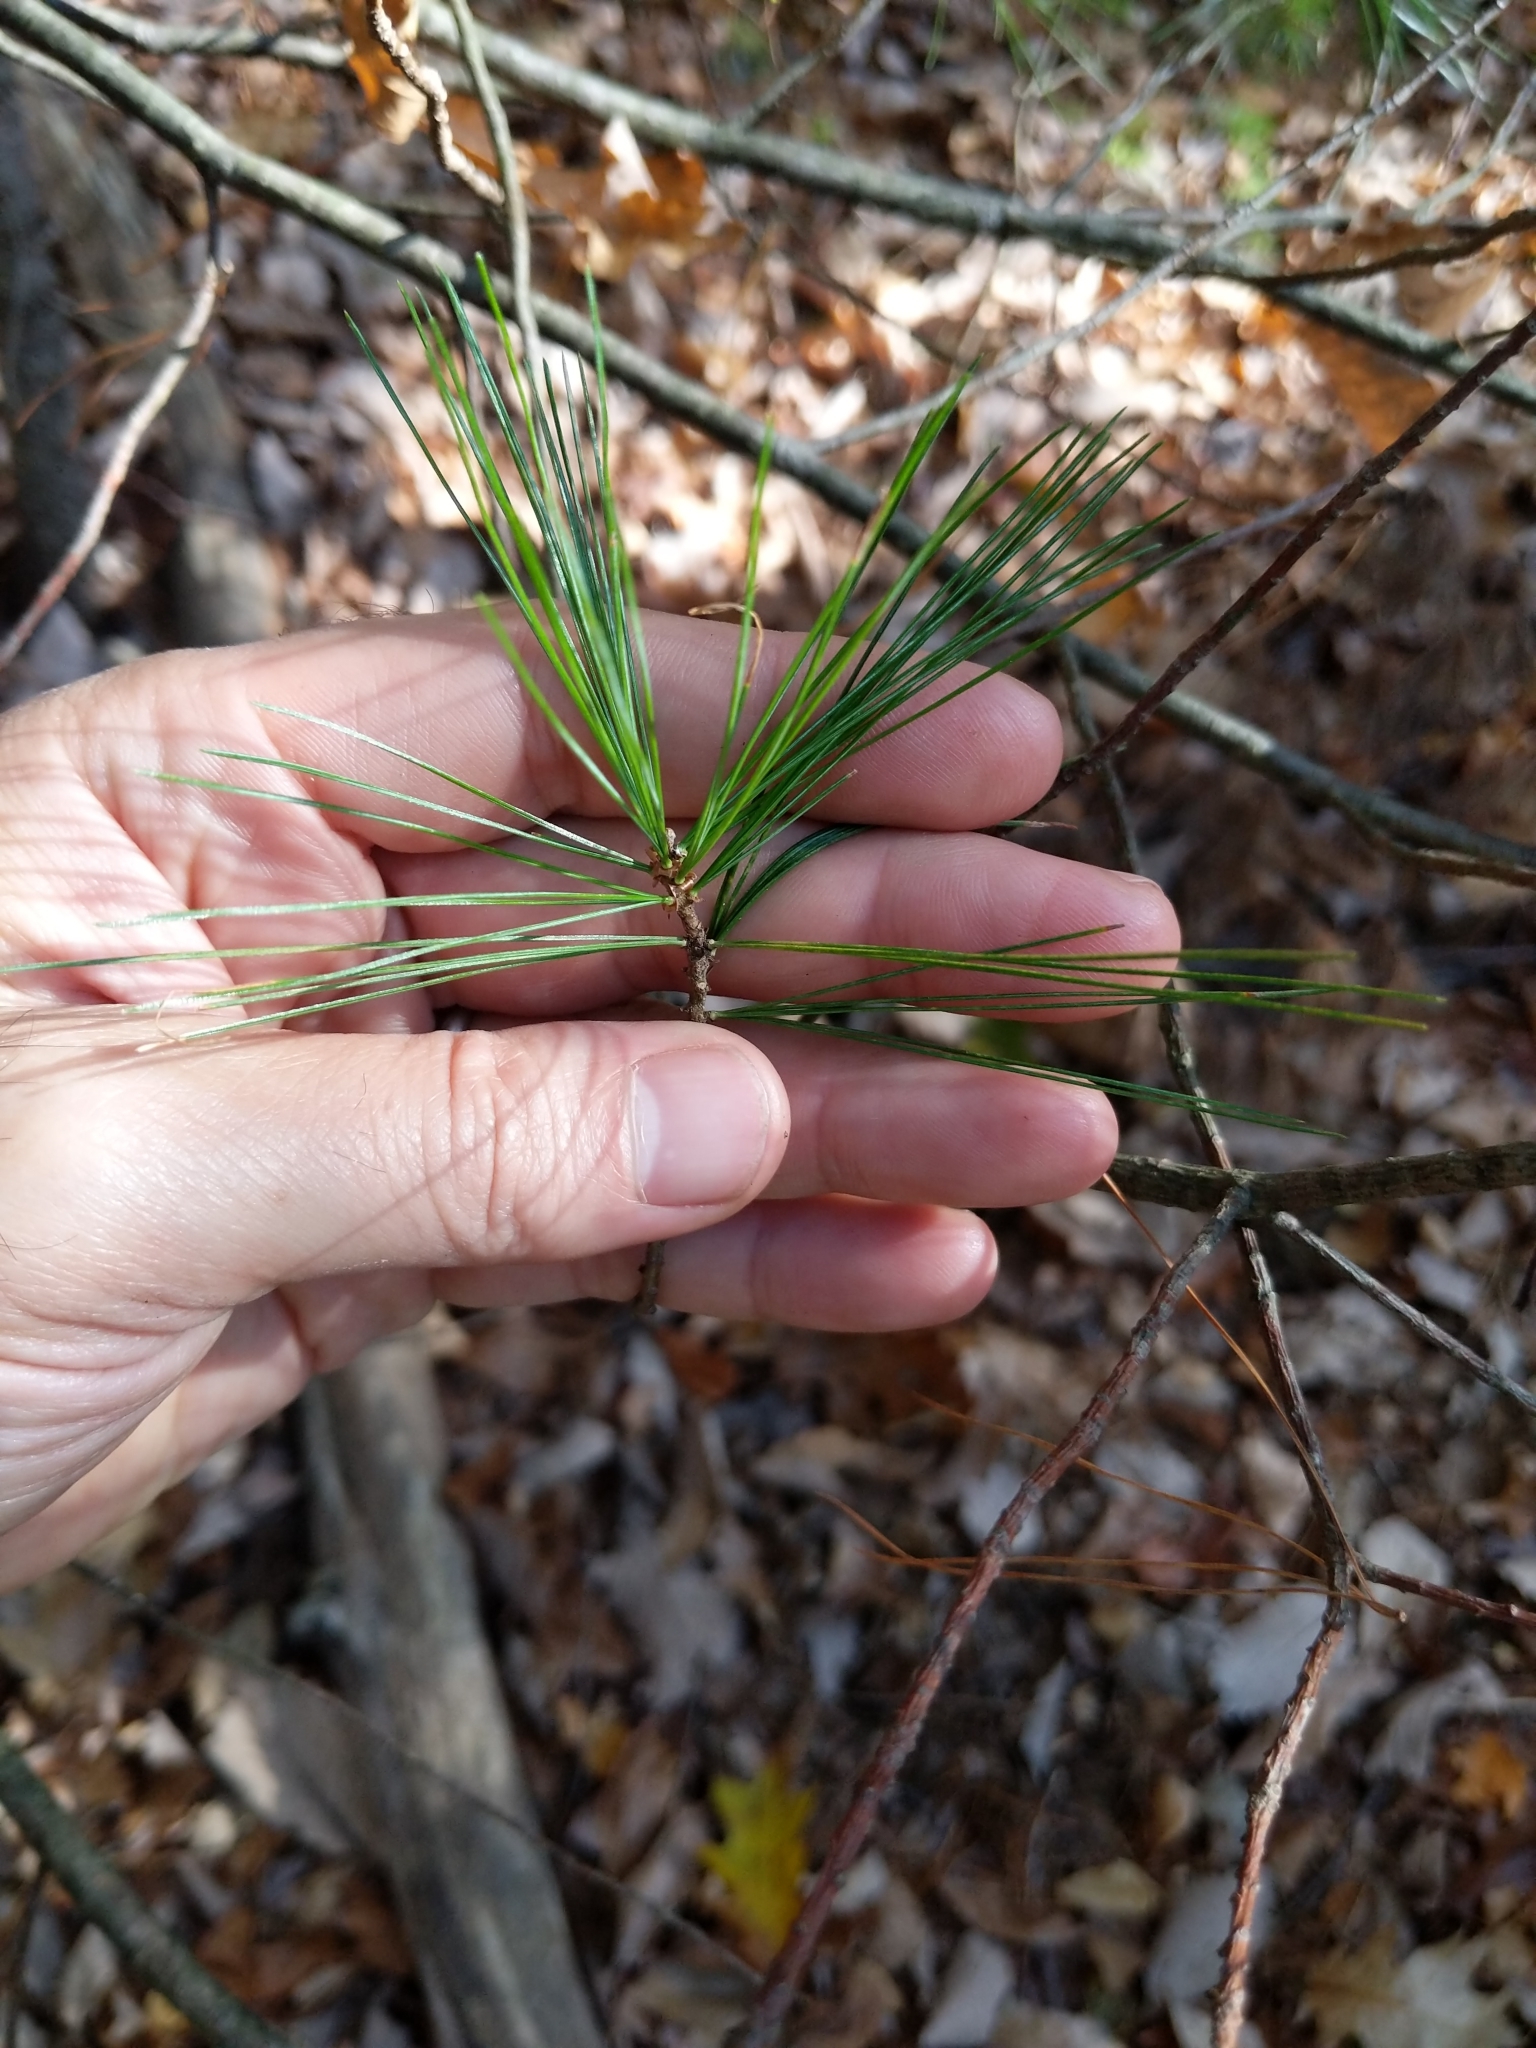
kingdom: Plantae
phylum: Tracheophyta
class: Pinopsida
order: Pinales
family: Pinaceae
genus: Pinus
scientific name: Pinus strobus
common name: Weymouth pine
